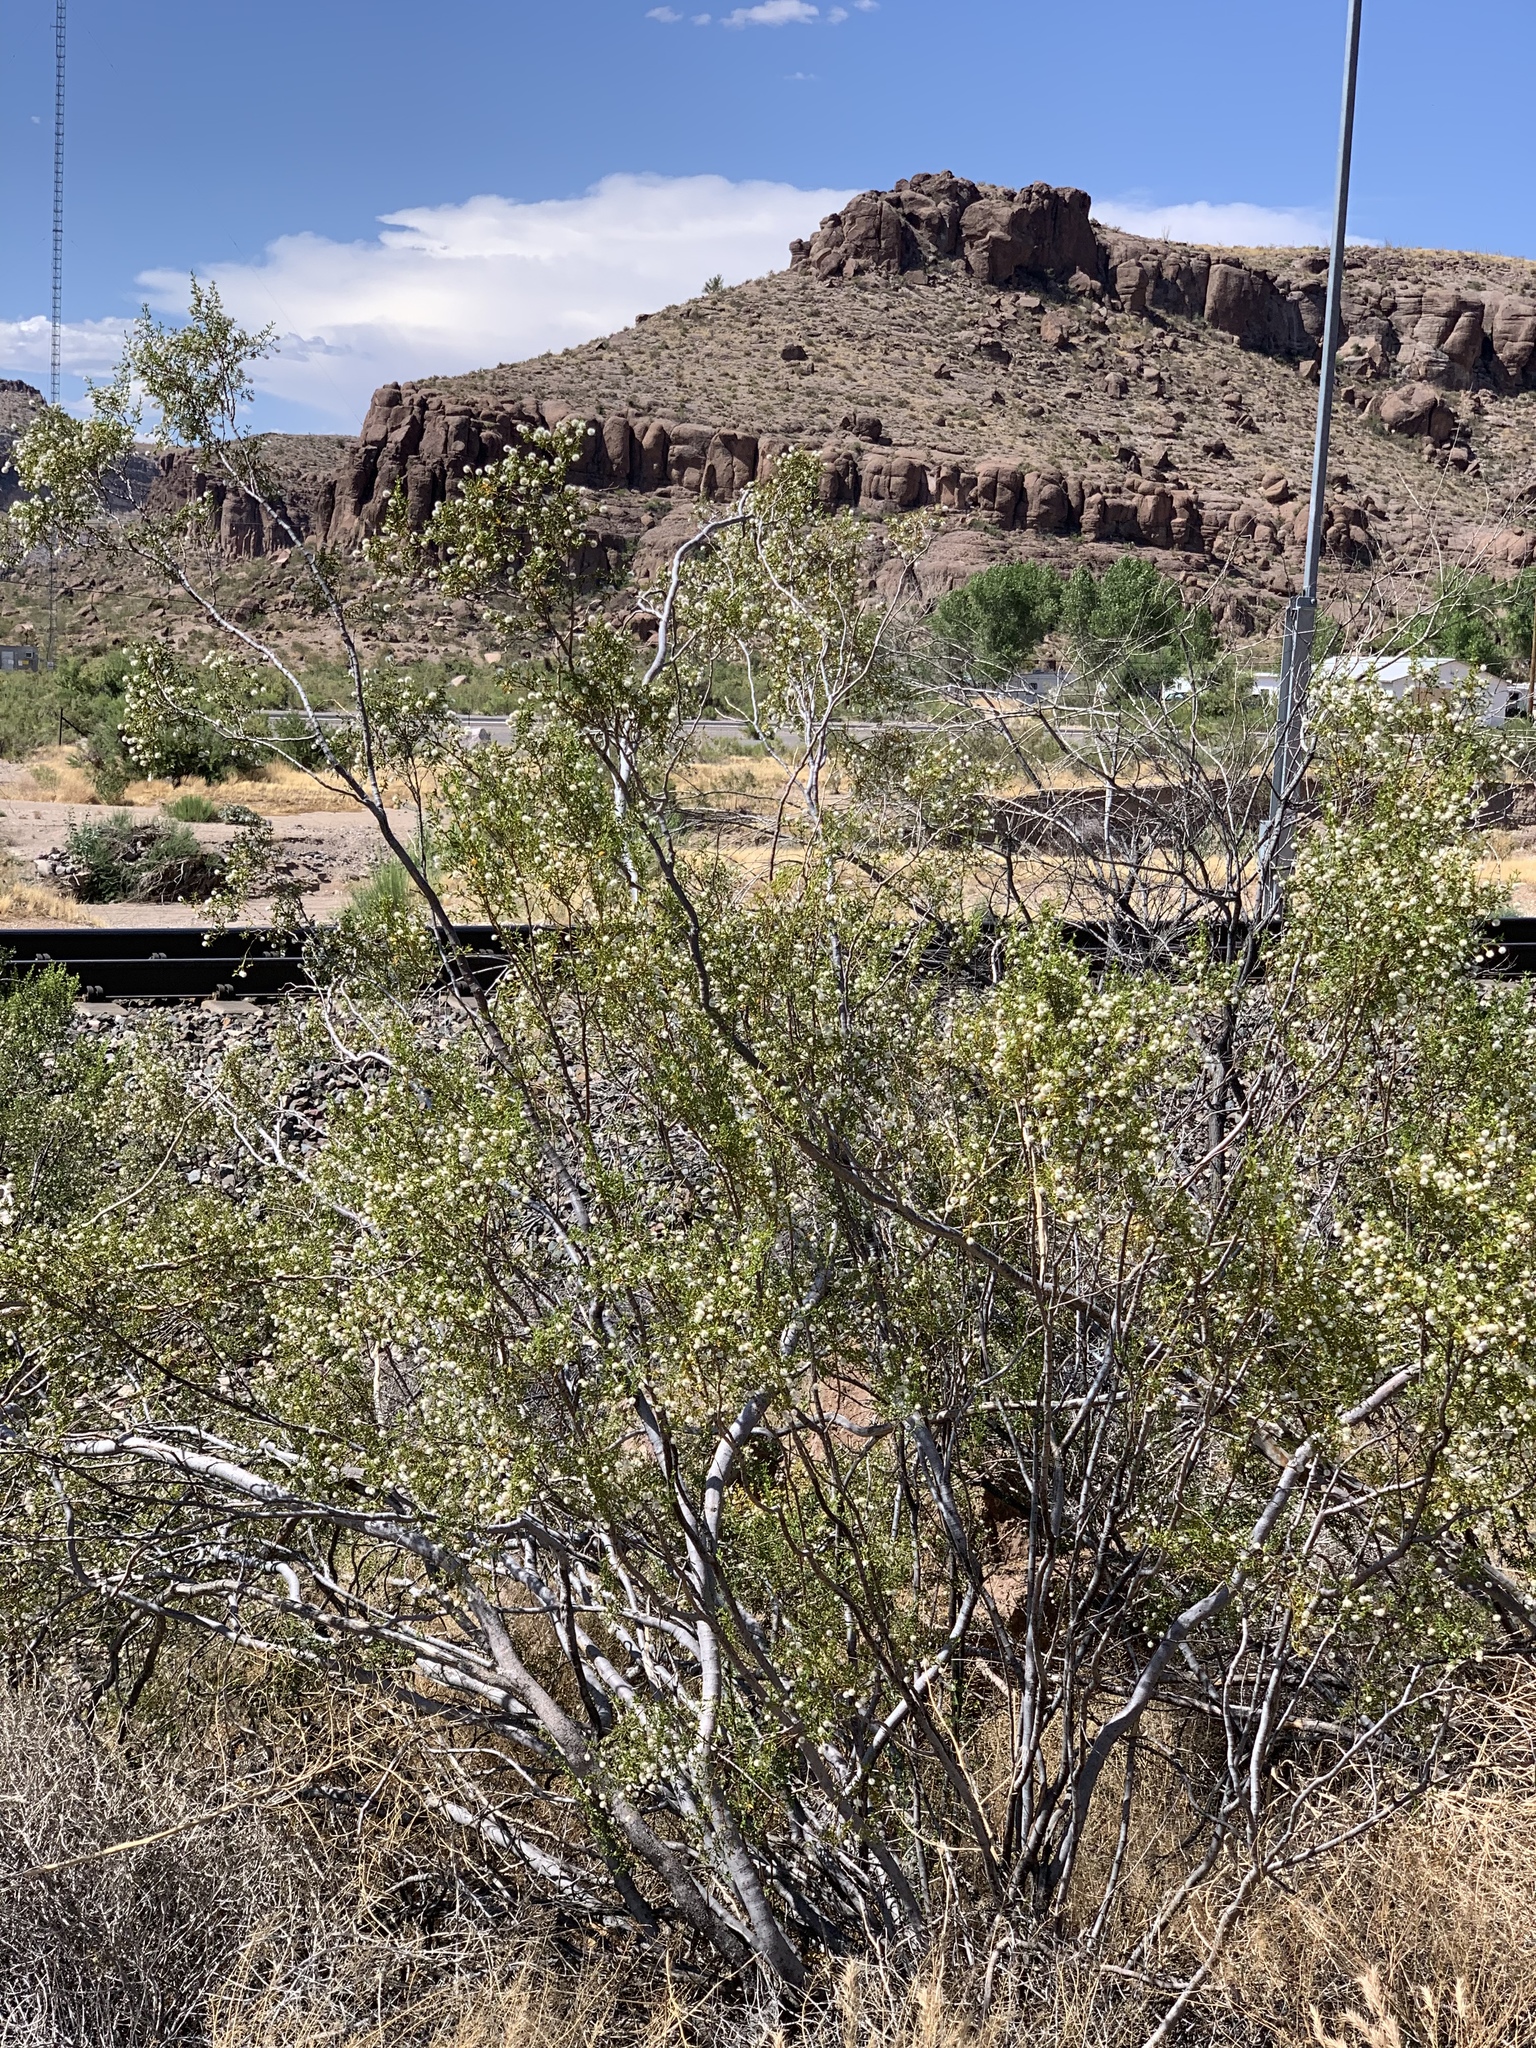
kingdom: Plantae
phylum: Tracheophyta
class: Magnoliopsida
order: Zygophyllales
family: Zygophyllaceae
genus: Larrea
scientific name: Larrea tridentata
